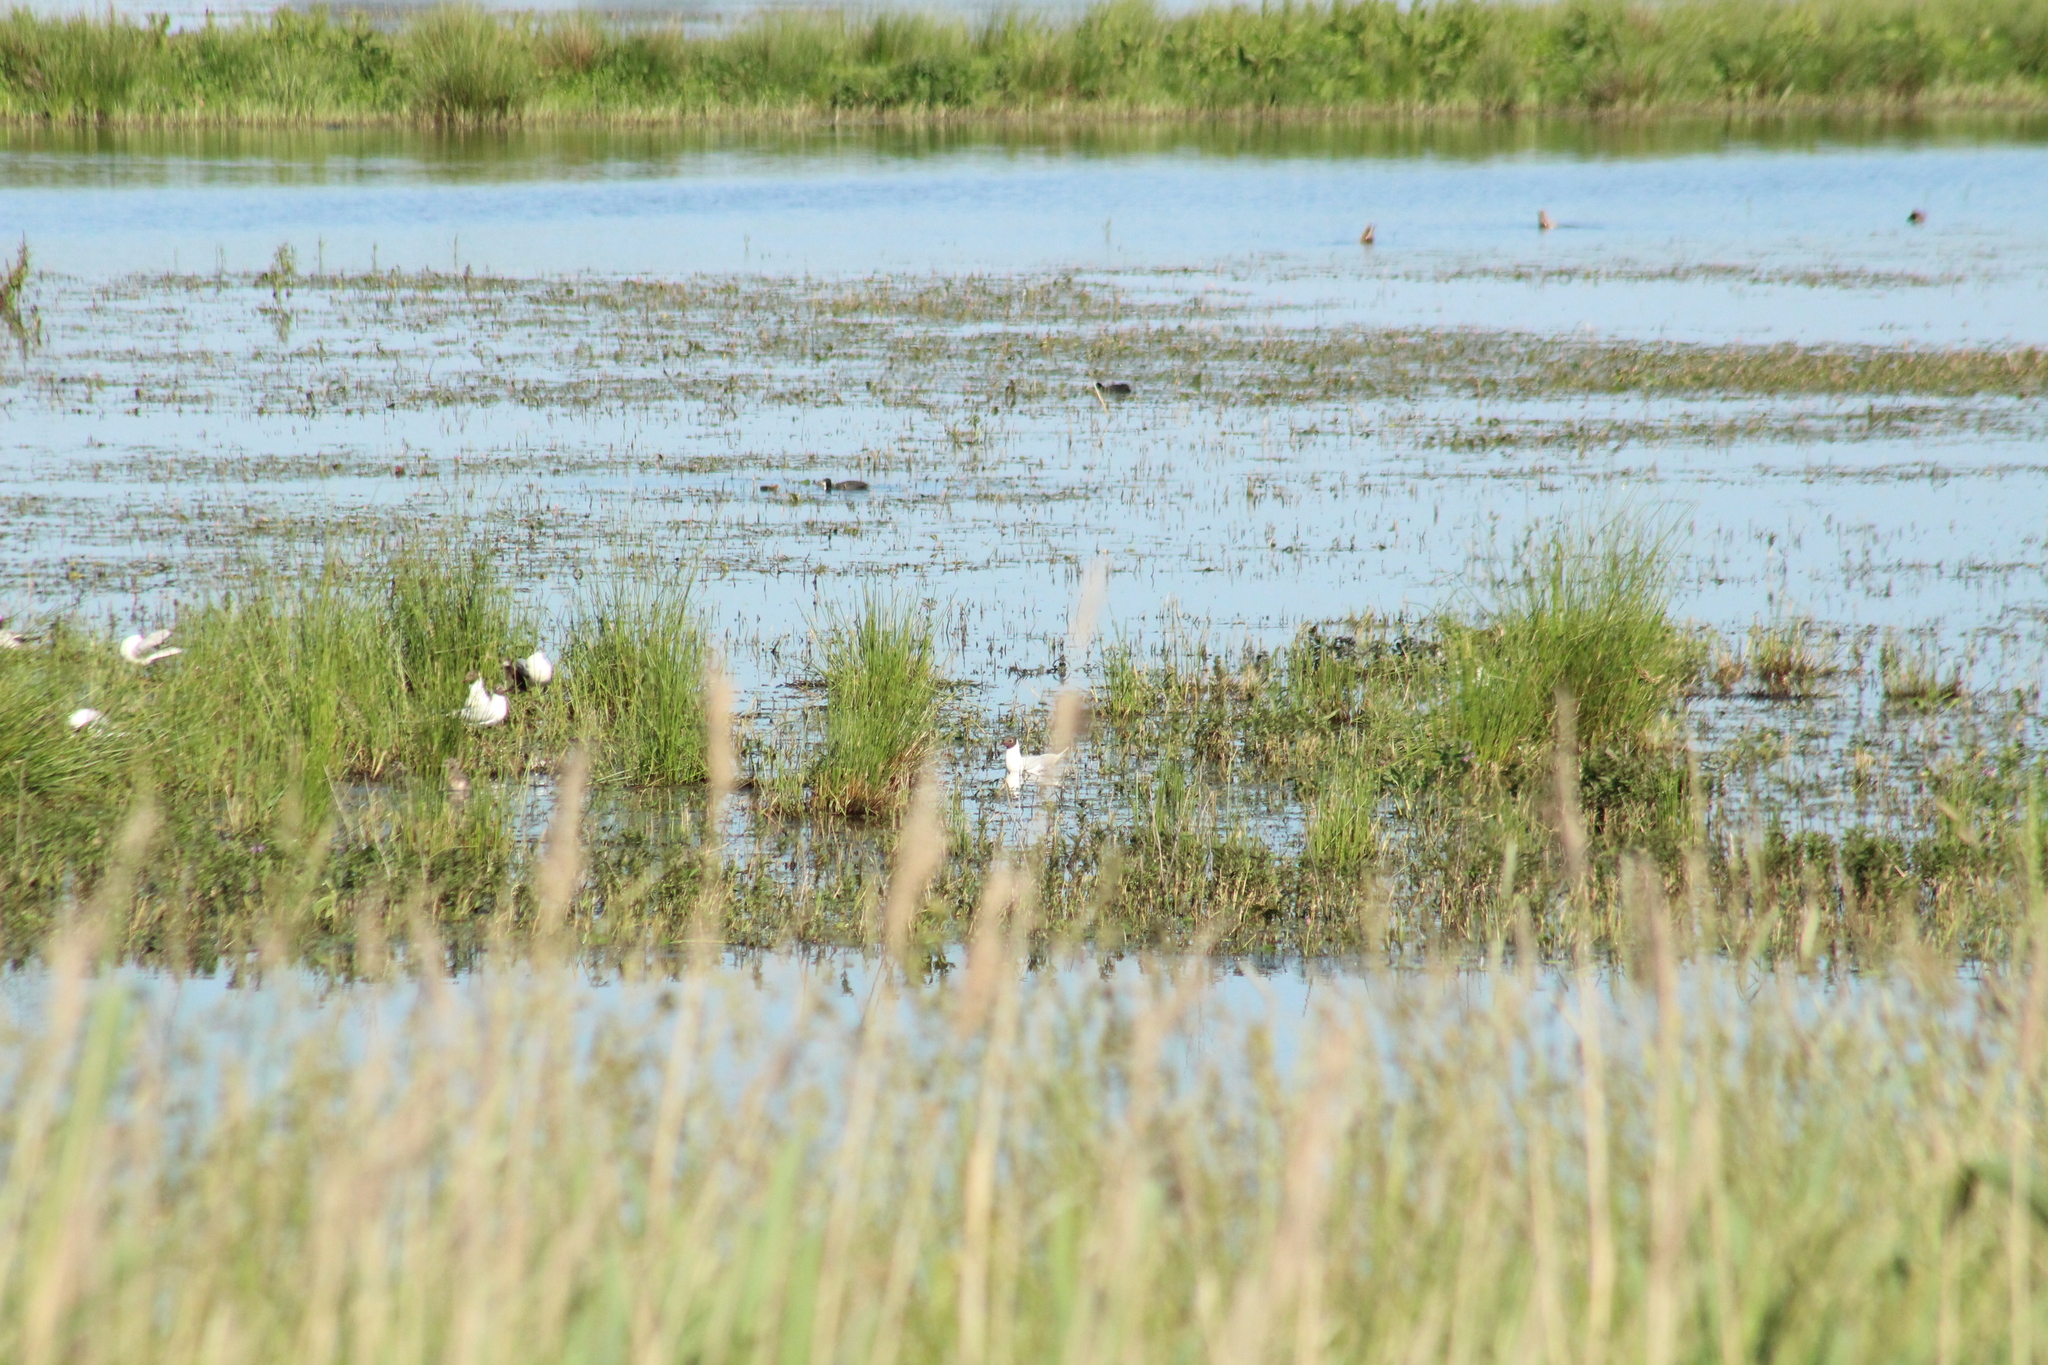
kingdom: Animalia
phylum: Chordata
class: Aves
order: Charadriiformes
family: Laridae
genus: Chroicocephalus
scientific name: Chroicocephalus ridibundus
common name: Black-headed gull
